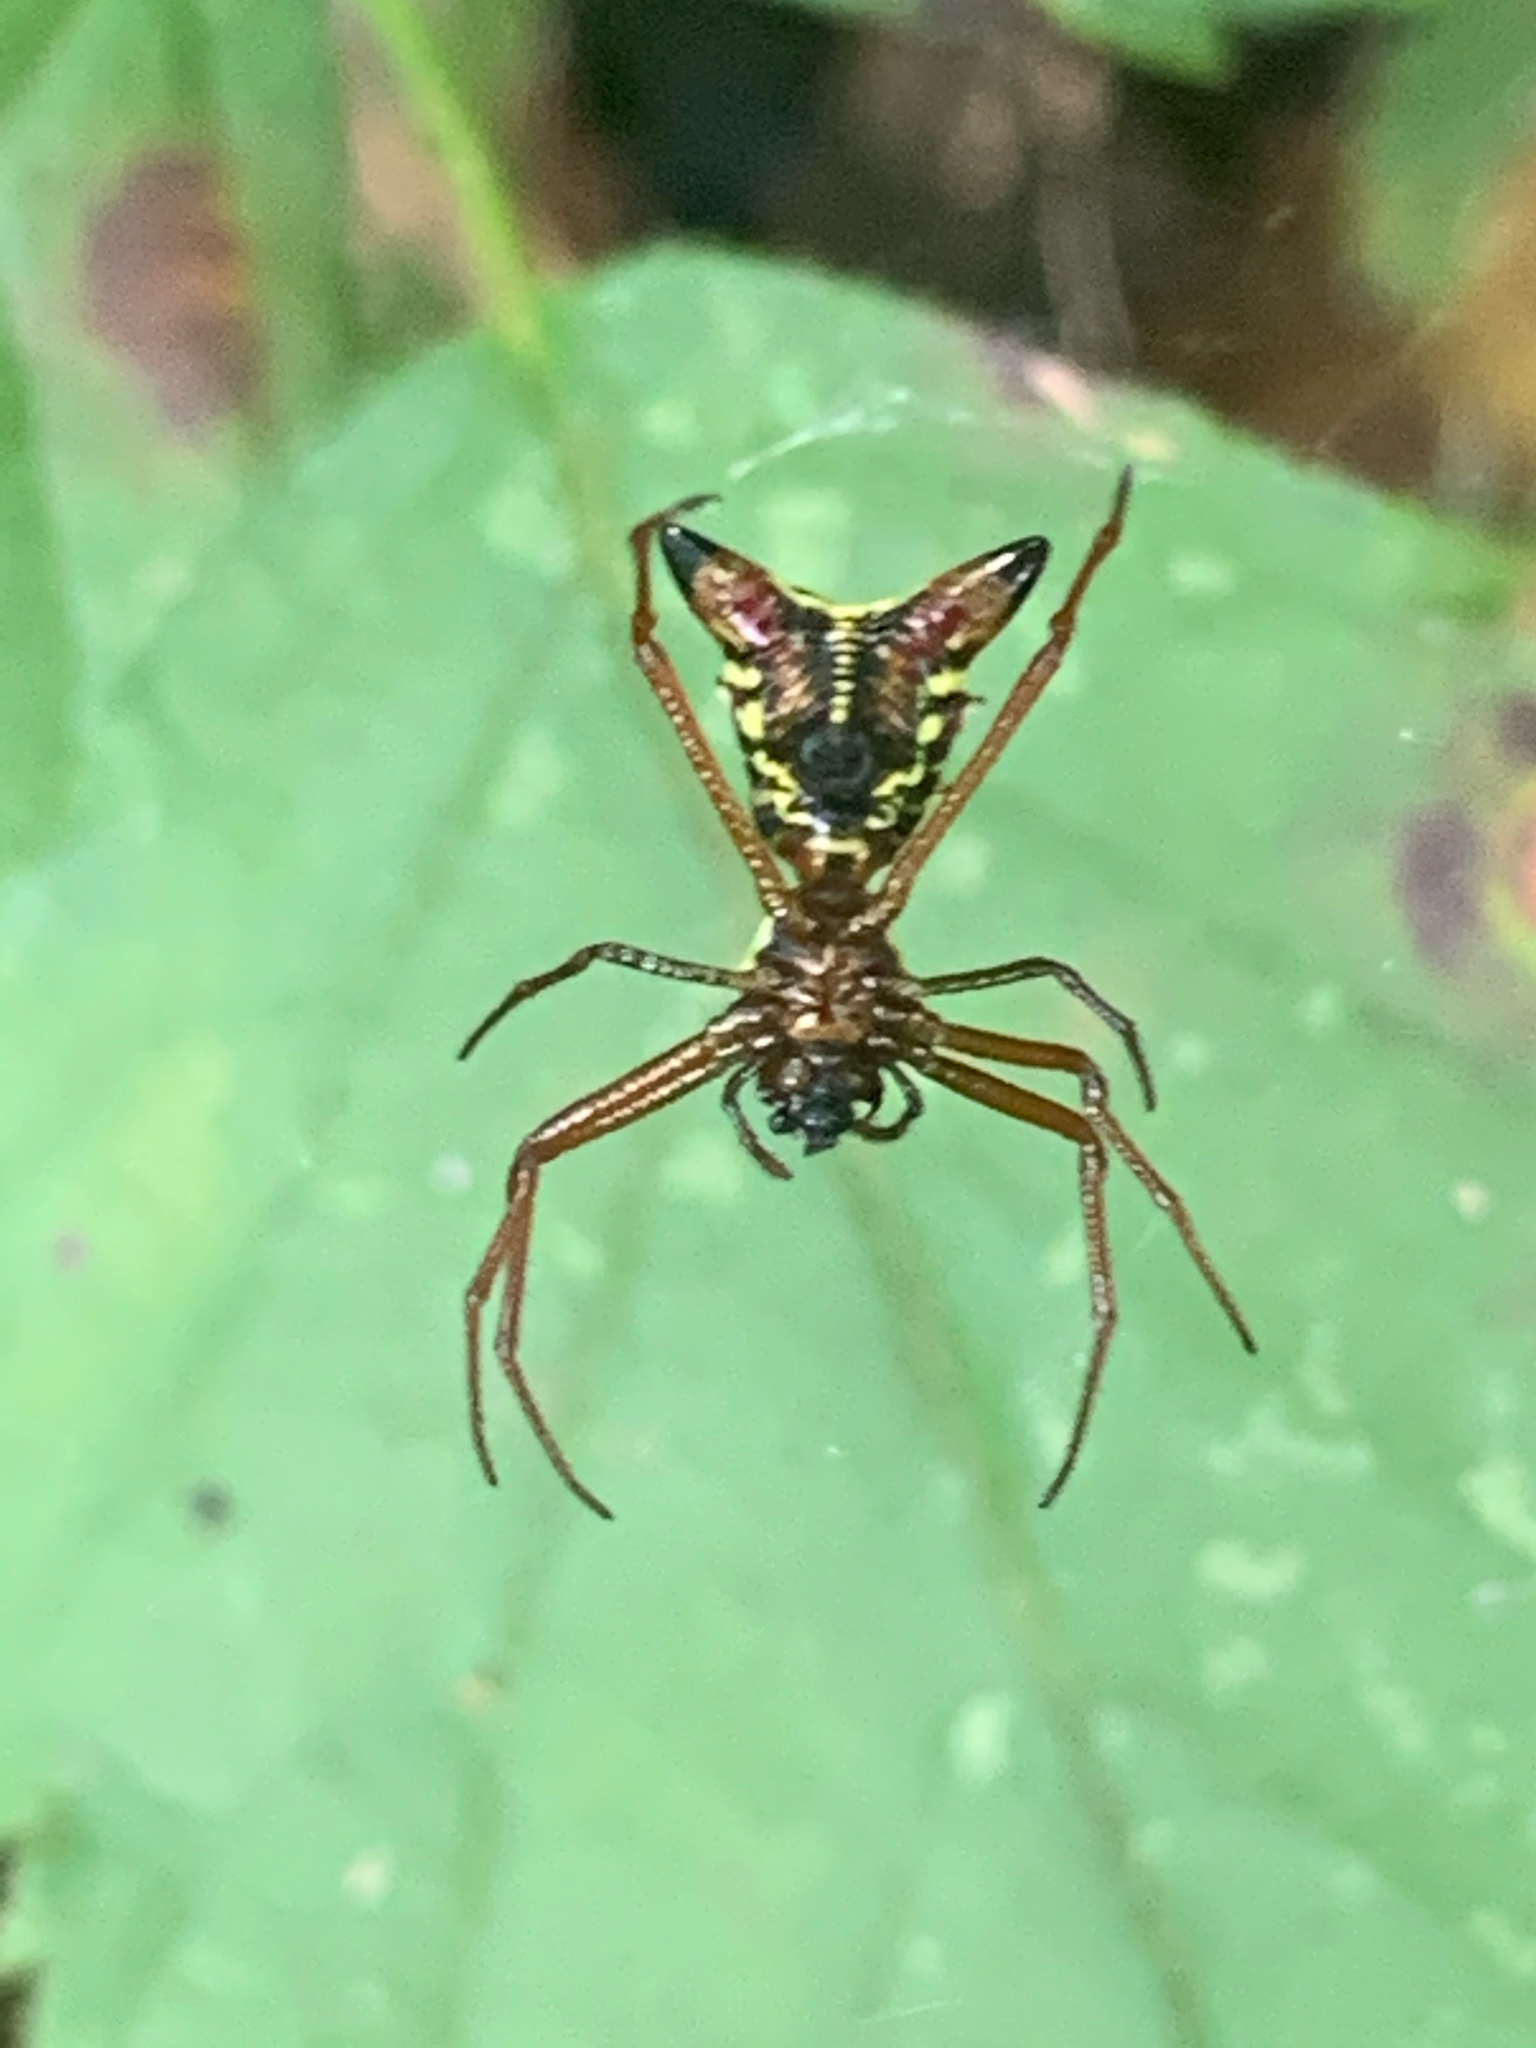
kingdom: Animalia
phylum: Arthropoda
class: Arachnida
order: Araneae
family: Araneidae
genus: Micrathena
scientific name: Micrathena sagittata
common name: Orb weavers
